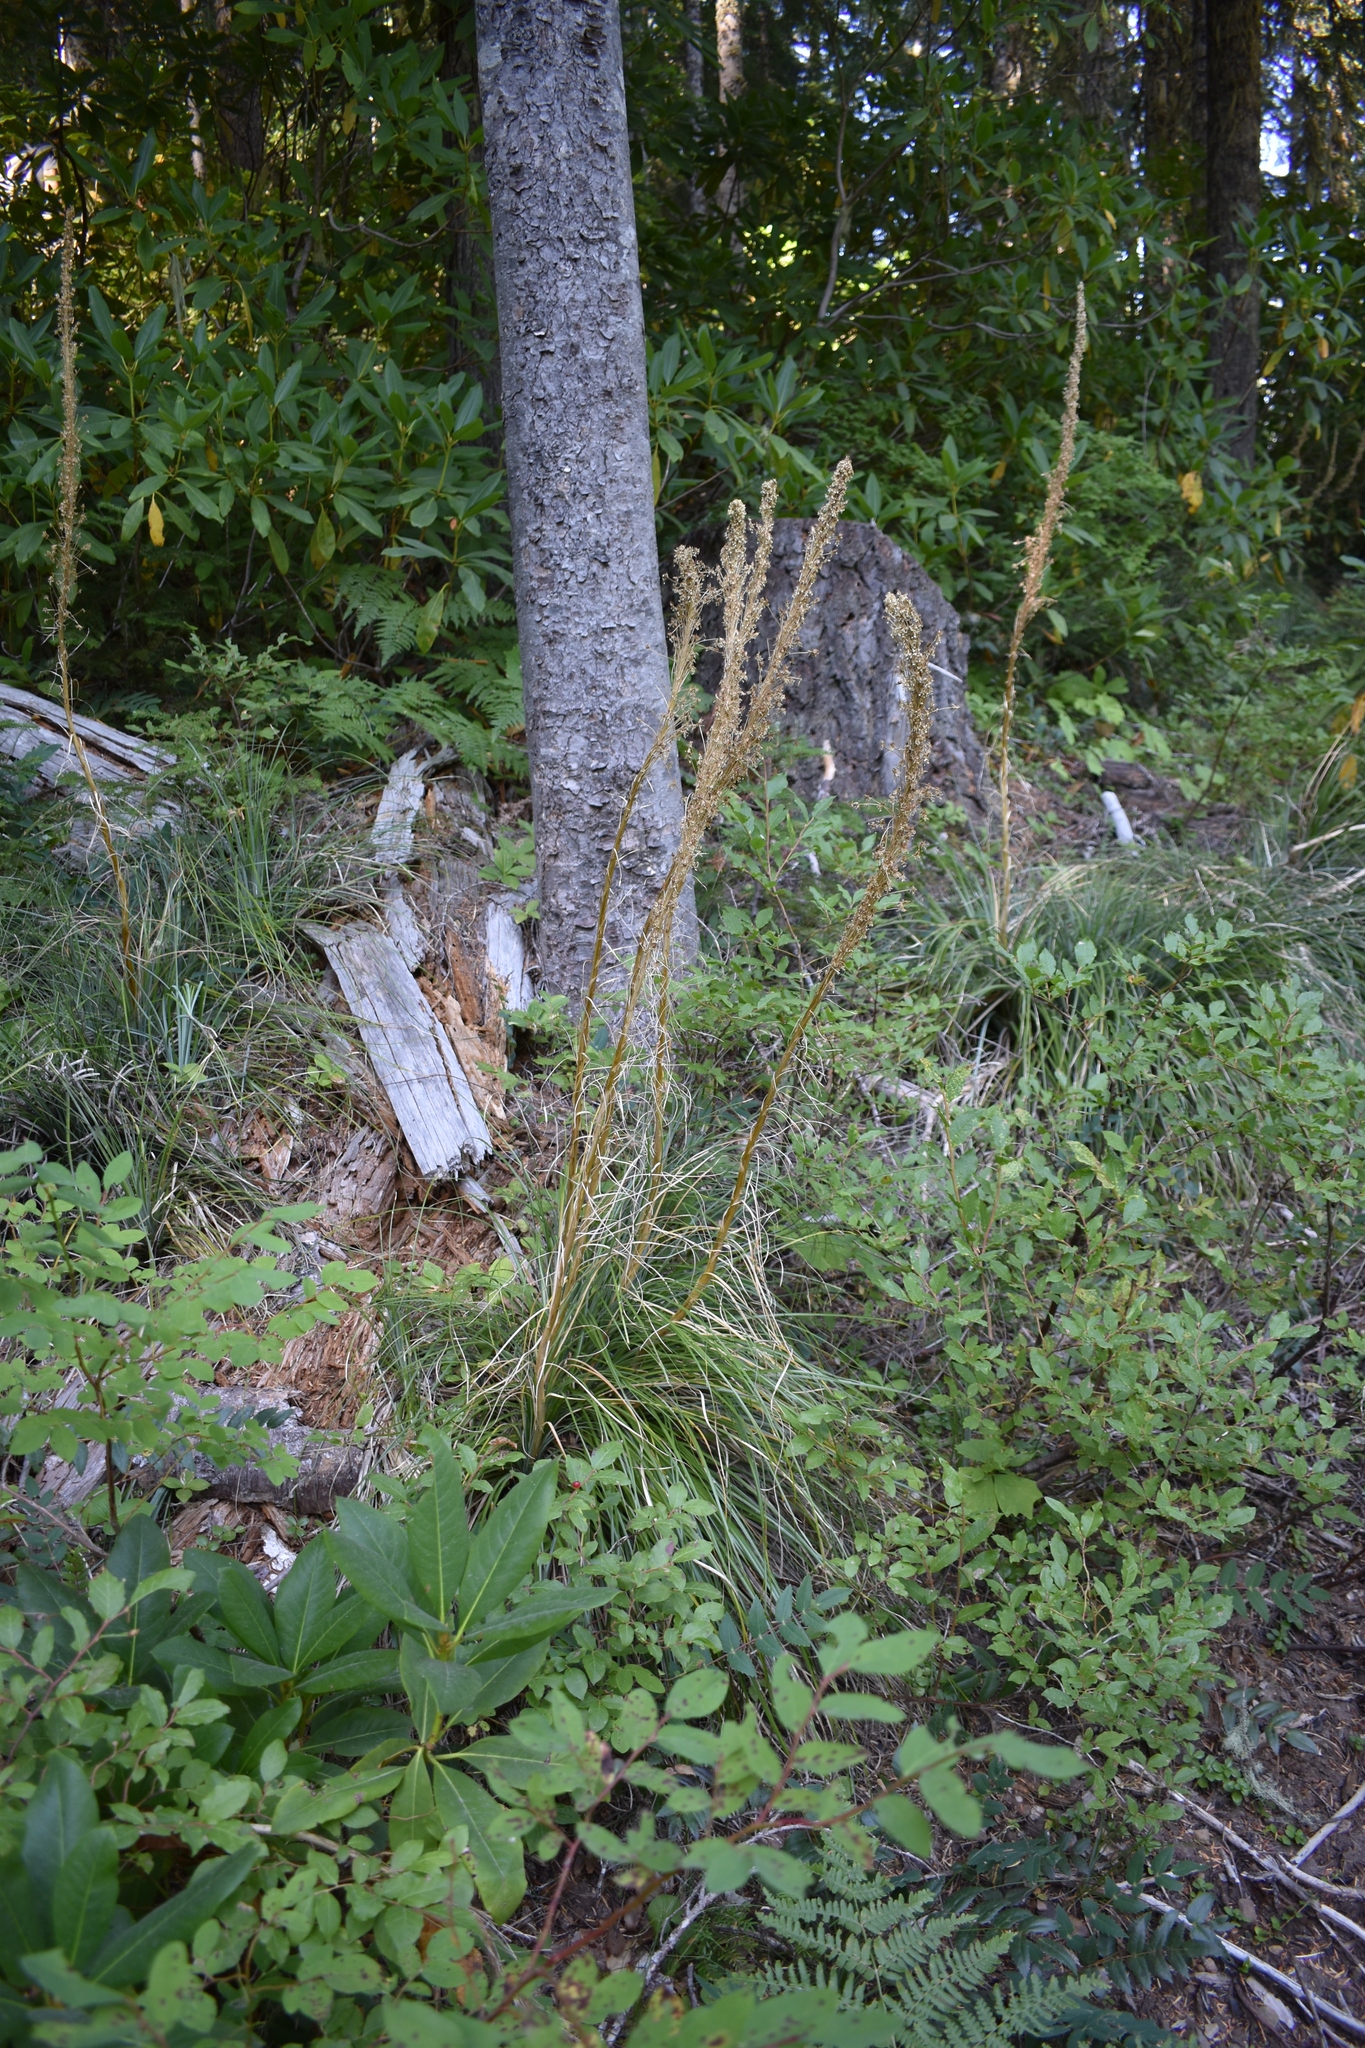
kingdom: Plantae
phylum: Tracheophyta
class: Liliopsida
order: Liliales
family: Melanthiaceae
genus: Xerophyllum
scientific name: Xerophyllum tenax
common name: Bear-grass
